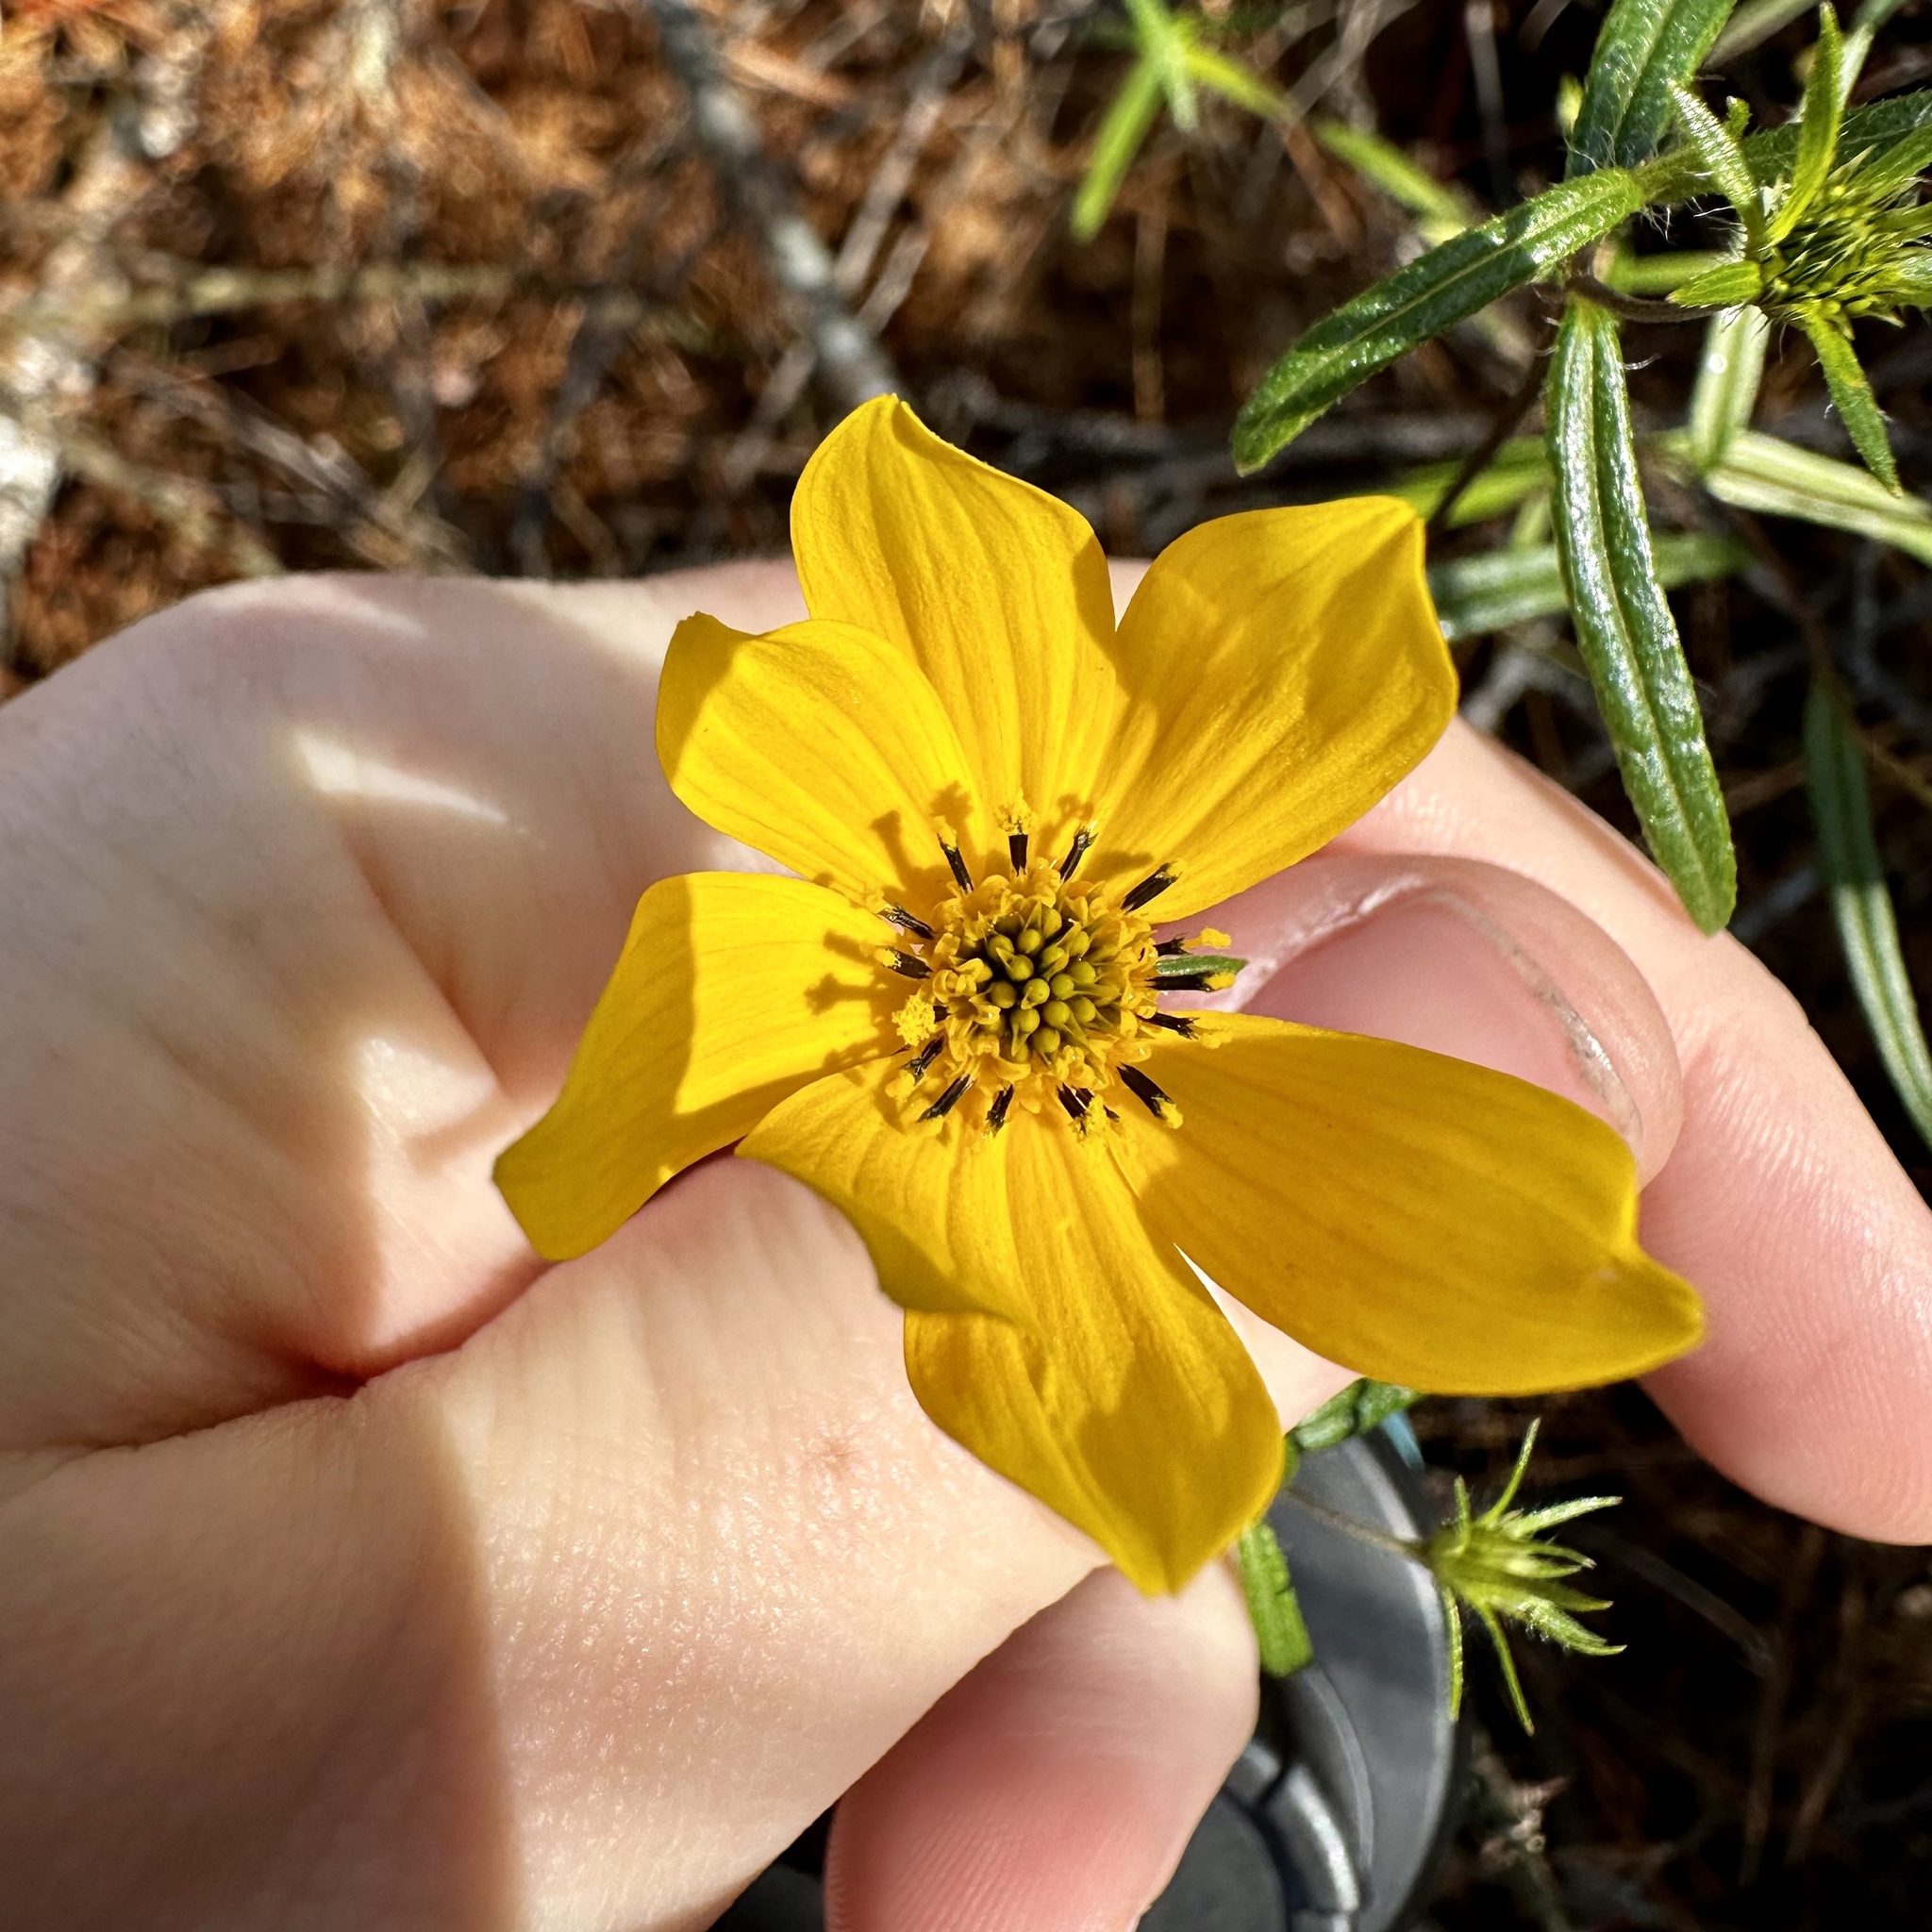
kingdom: Plantae
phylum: Tracheophyta
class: Magnoliopsida
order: Asterales
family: Asteraceae
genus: Helianthus
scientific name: Helianthus porteri
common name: Porter's sunflower
